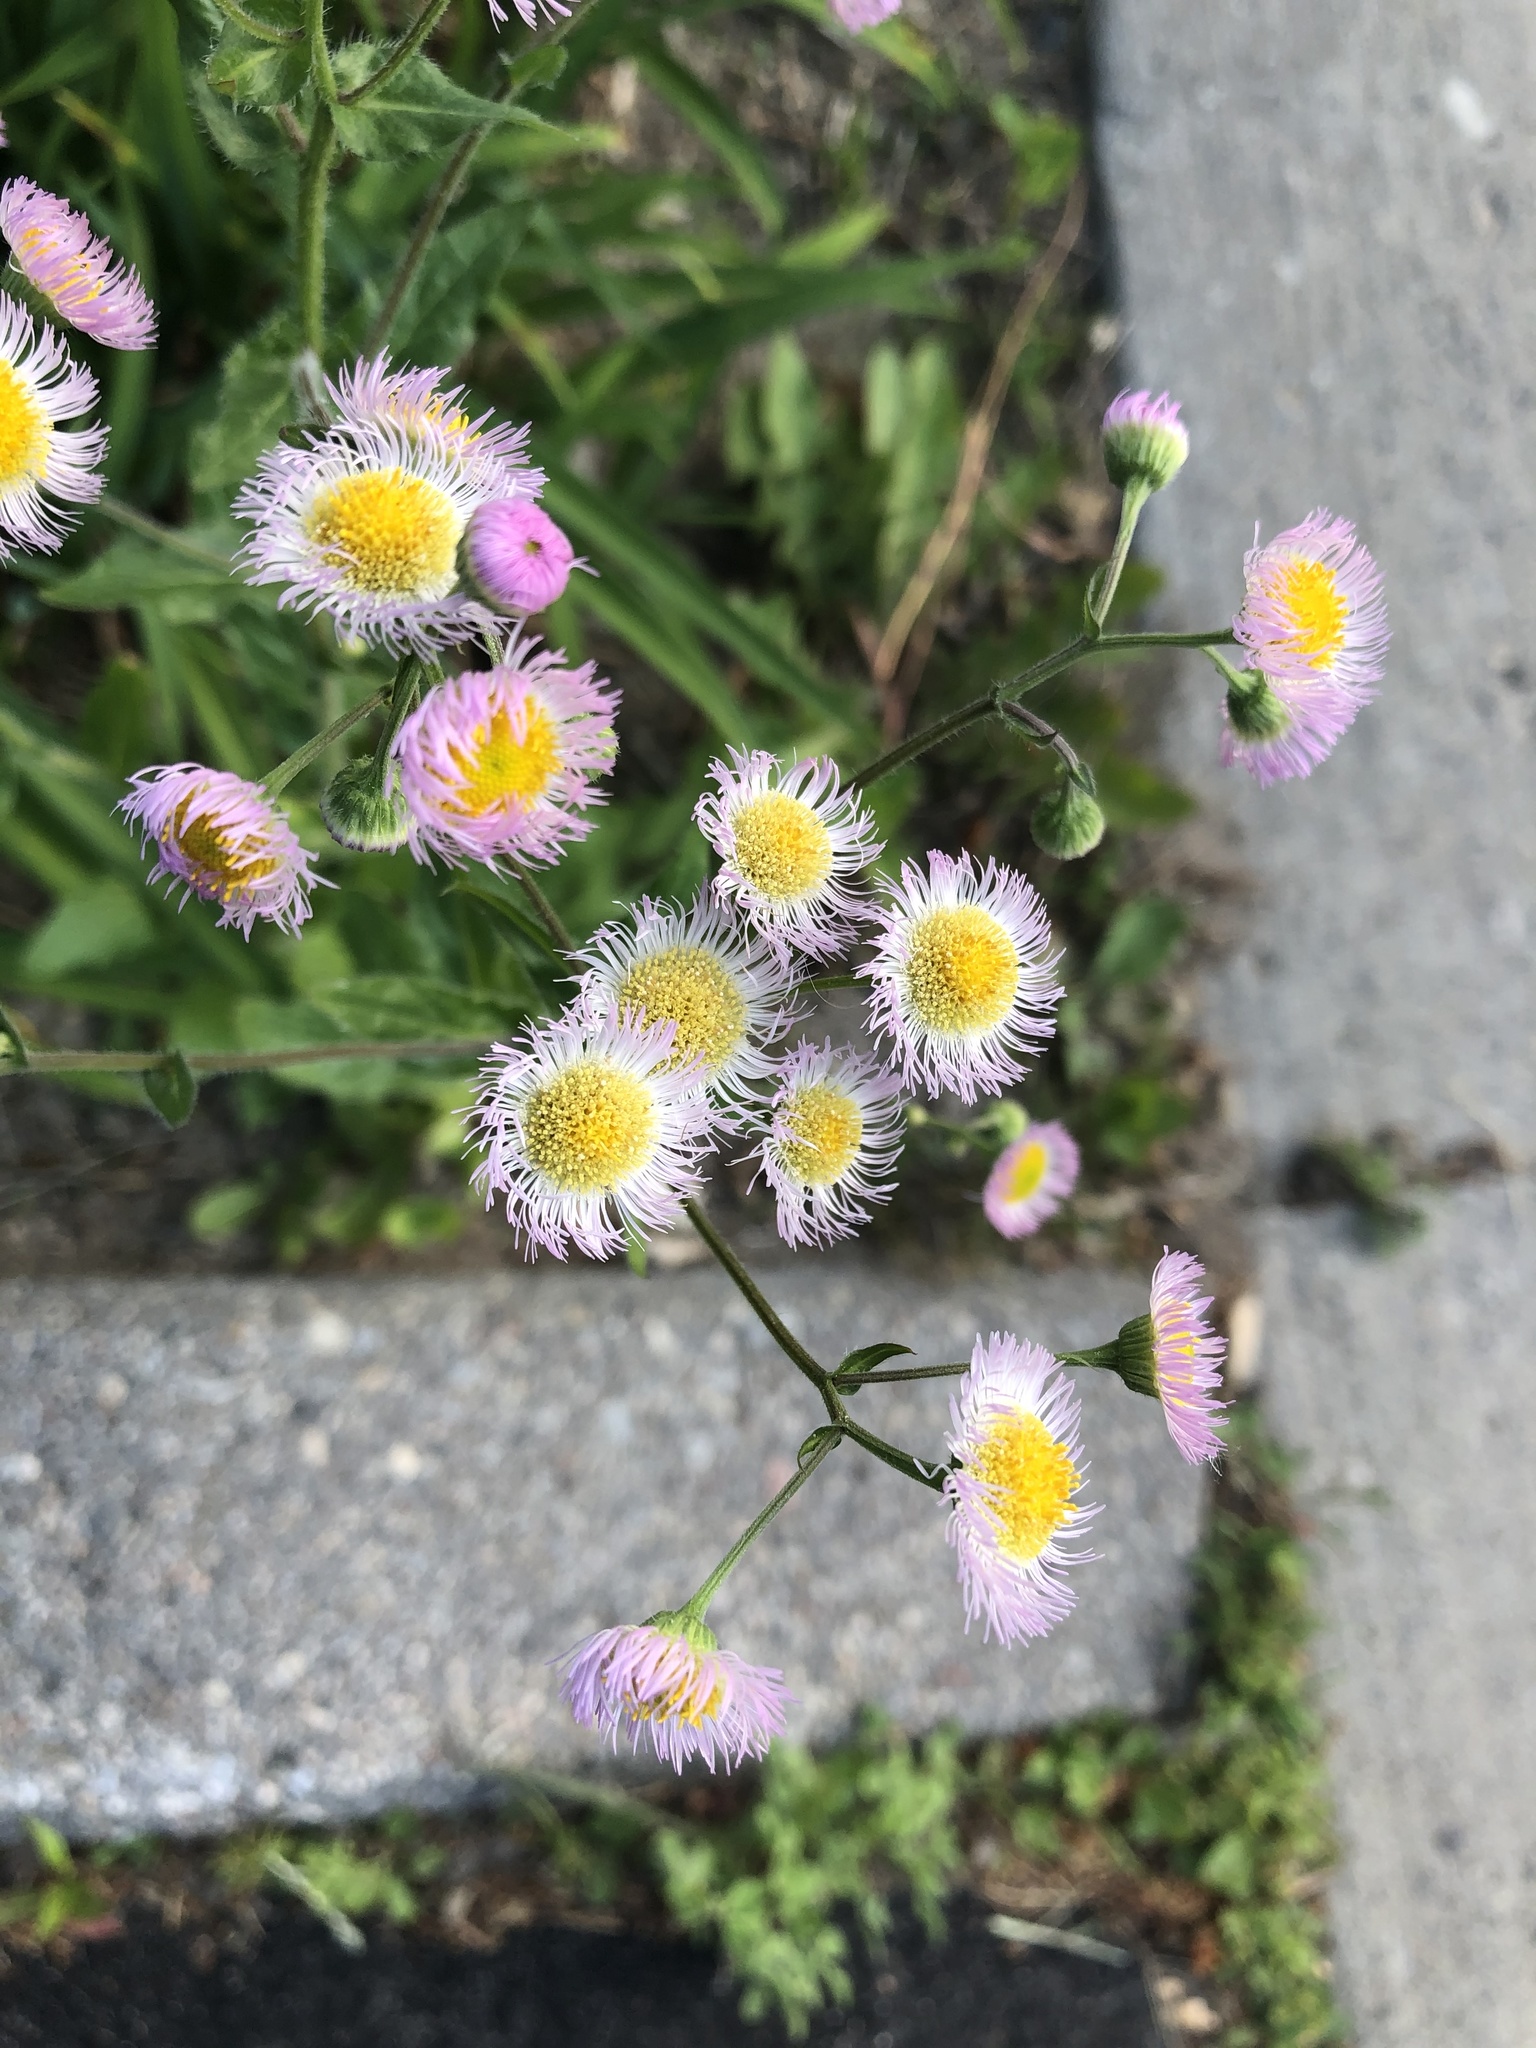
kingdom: Plantae
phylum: Tracheophyta
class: Magnoliopsida
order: Asterales
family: Asteraceae
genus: Erigeron
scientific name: Erigeron philadelphicus
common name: Robin's-plantain
